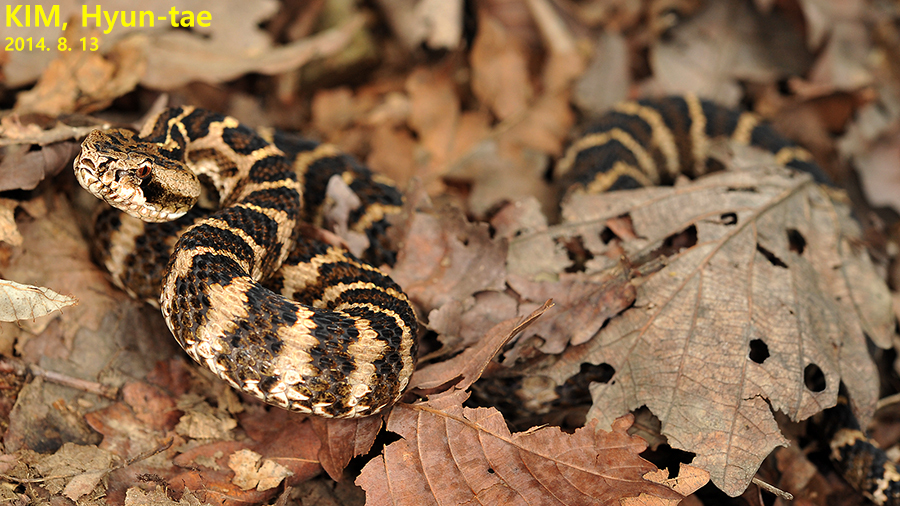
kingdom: Animalia
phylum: Chordata
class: Squamata
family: Viperidae
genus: Gloydius
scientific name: Gloydius intermedius
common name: Central asian pit viper
